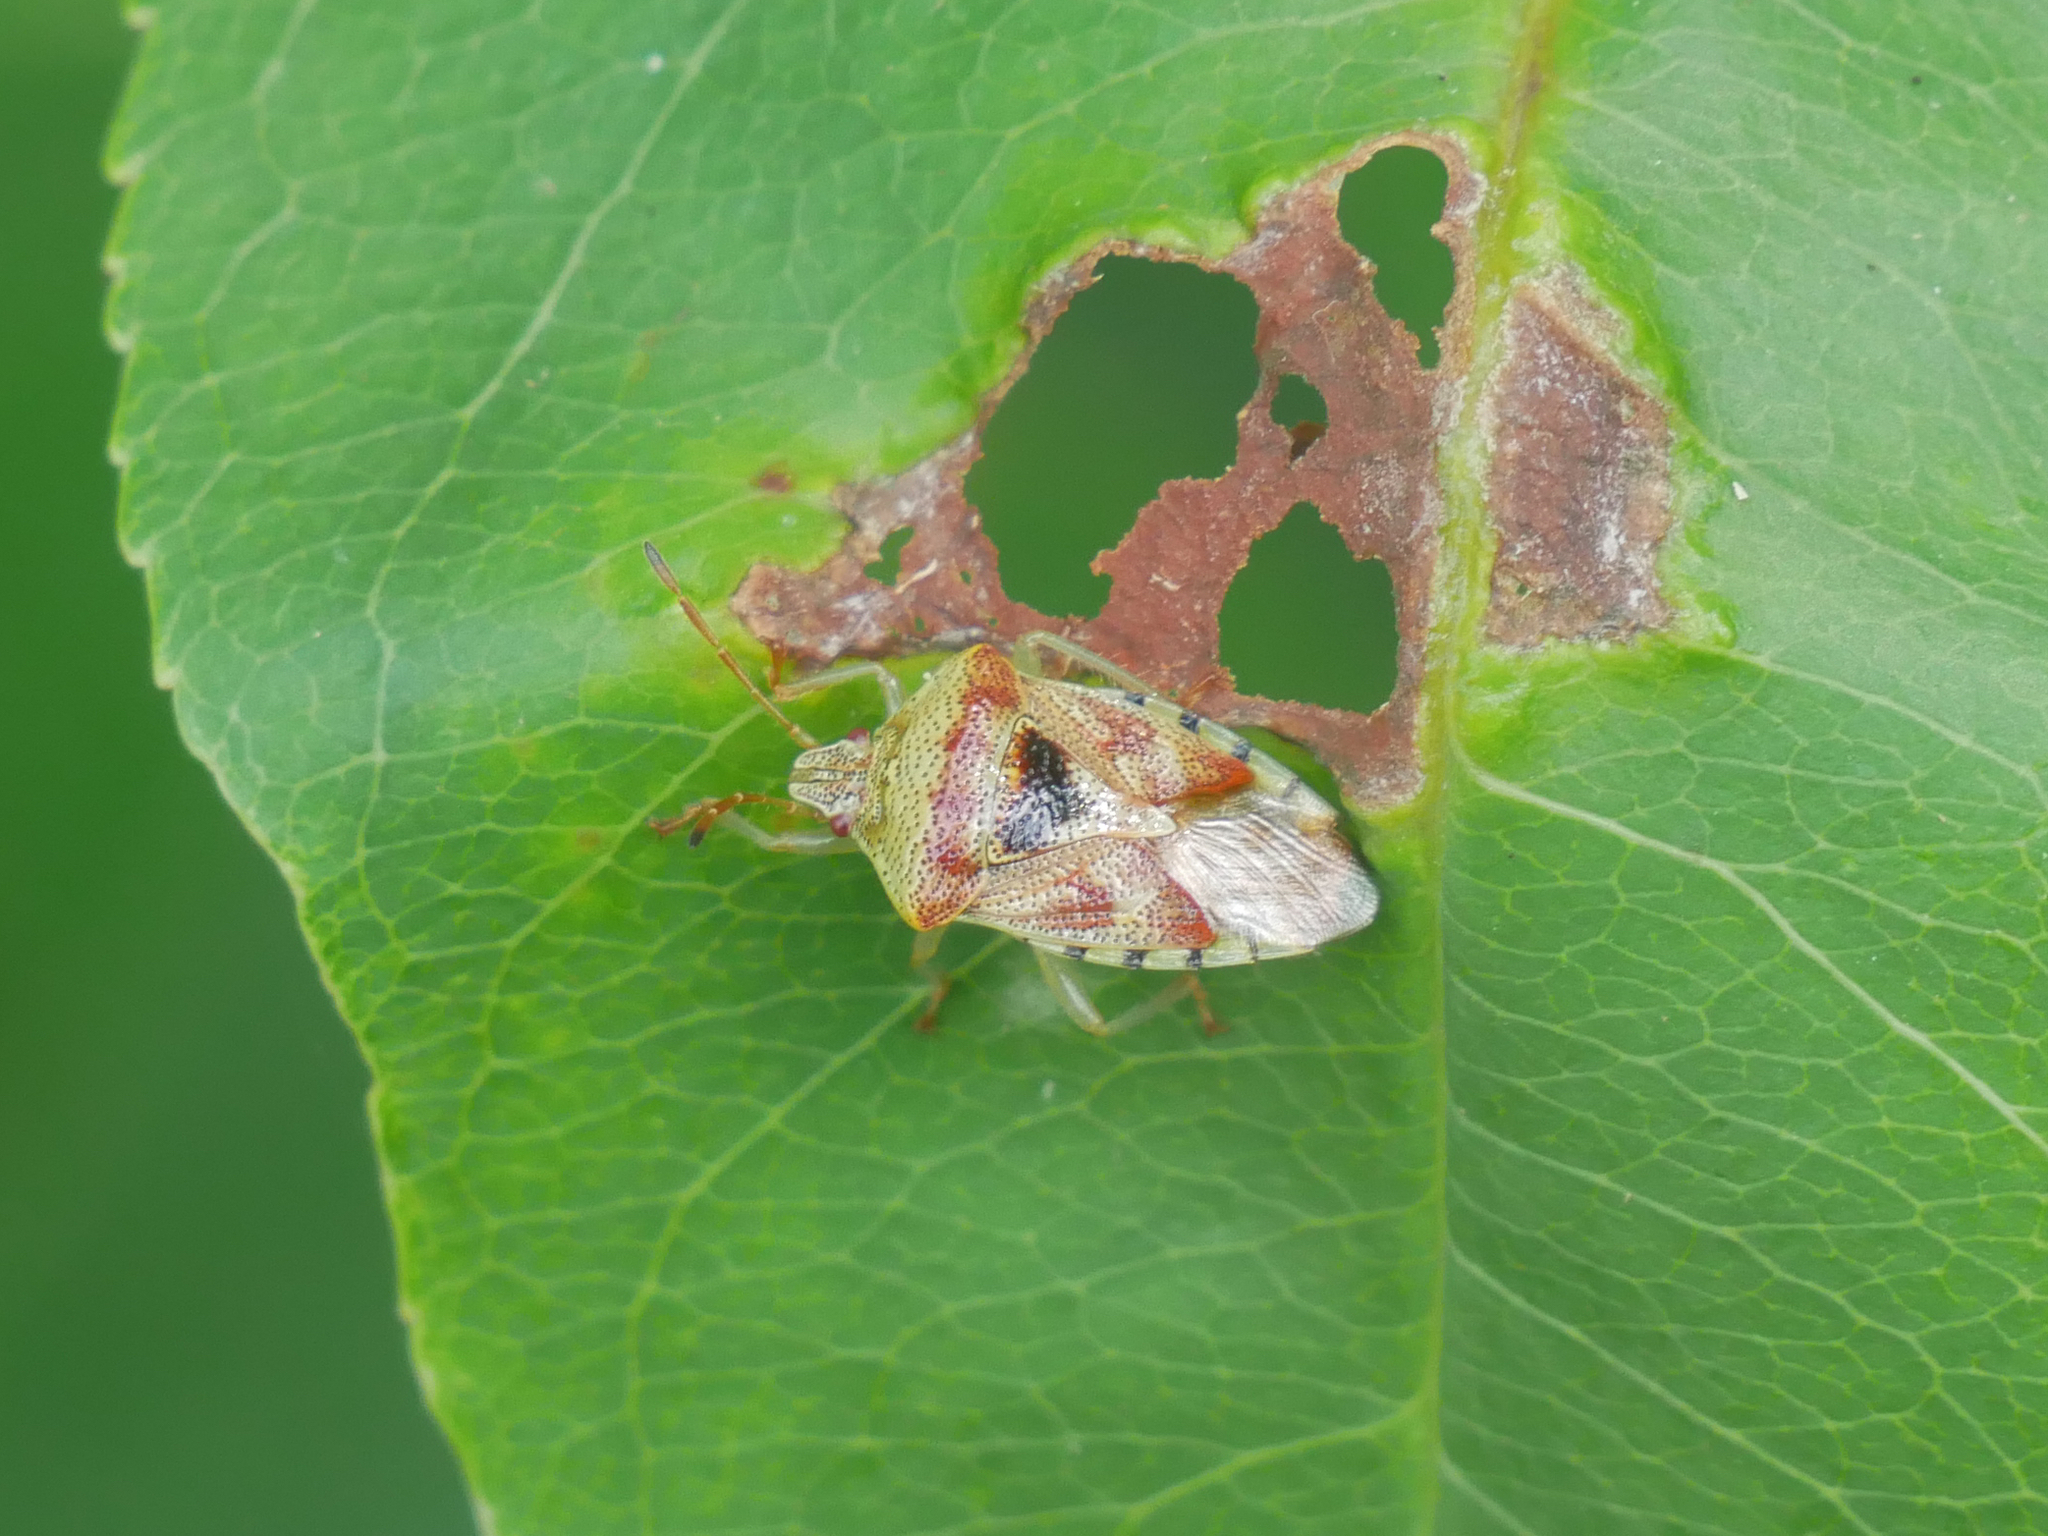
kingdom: Animalia
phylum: Arthropoda
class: Insecta
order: Hemiptera
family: Acanthosomatidae
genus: Elasmucha
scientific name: Elasmucha grisea
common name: Parent bug
